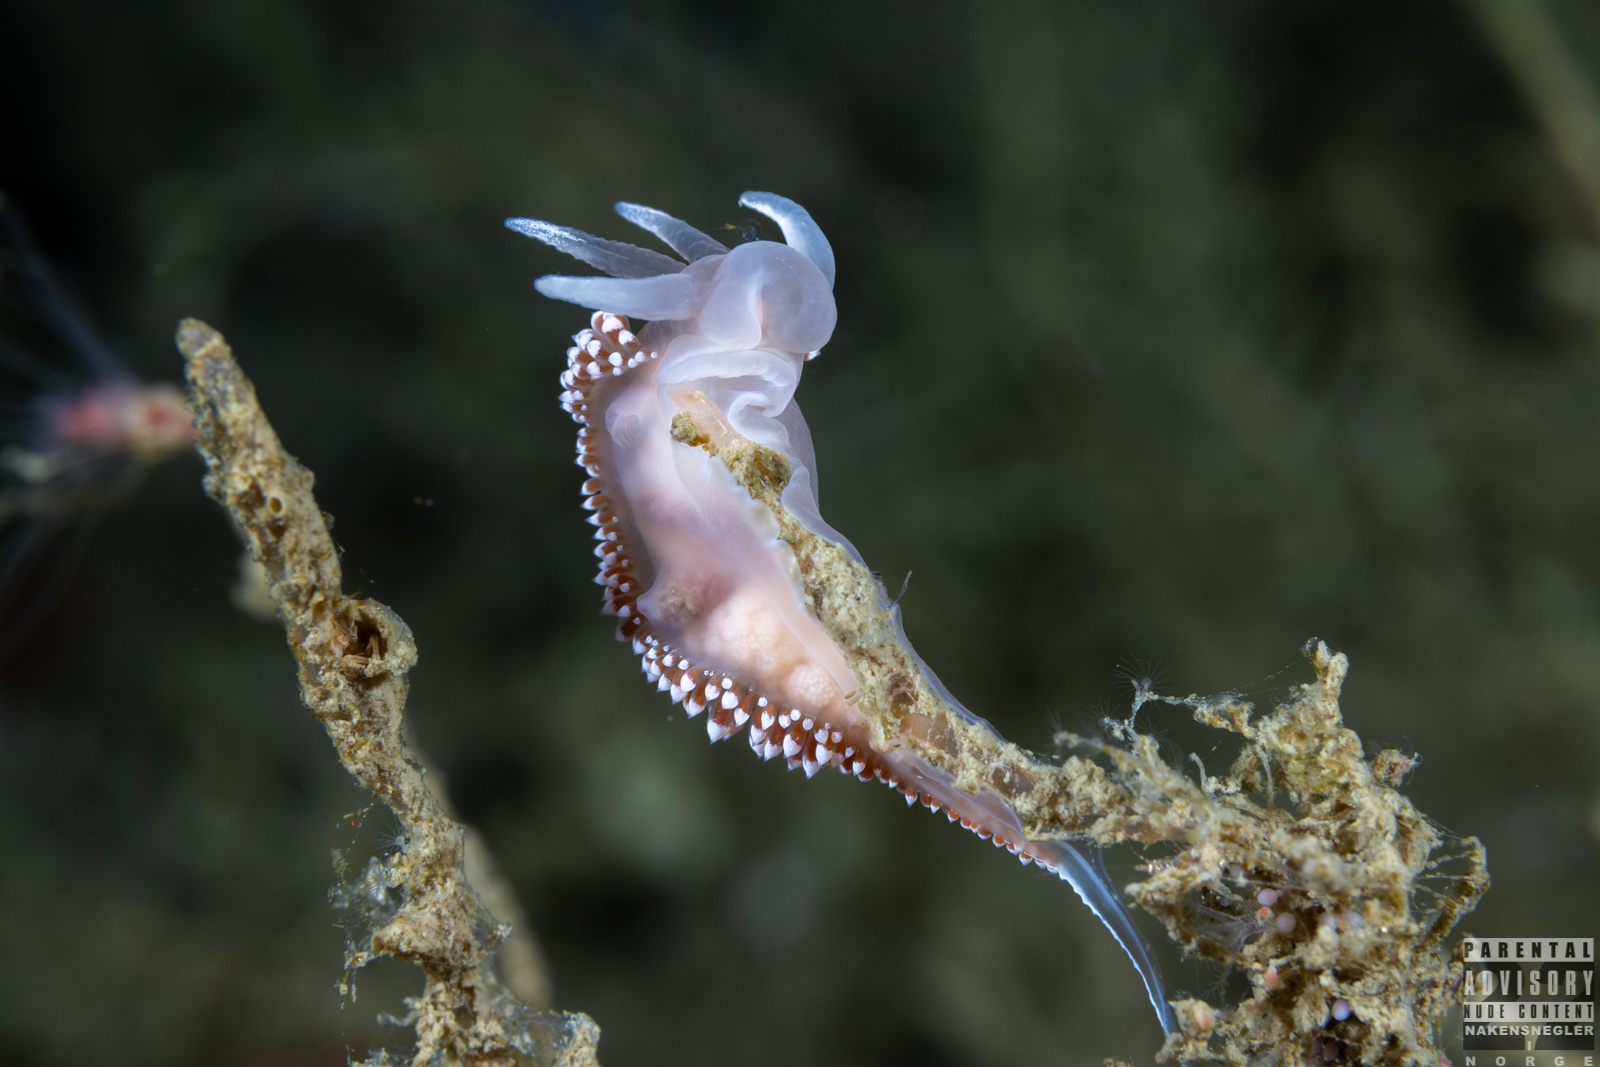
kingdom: Animalia
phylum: Mollusca
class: Gastropoda
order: Nudibranchia
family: Coryphellidae
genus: Coryphella
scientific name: Coryphella verrucosa
